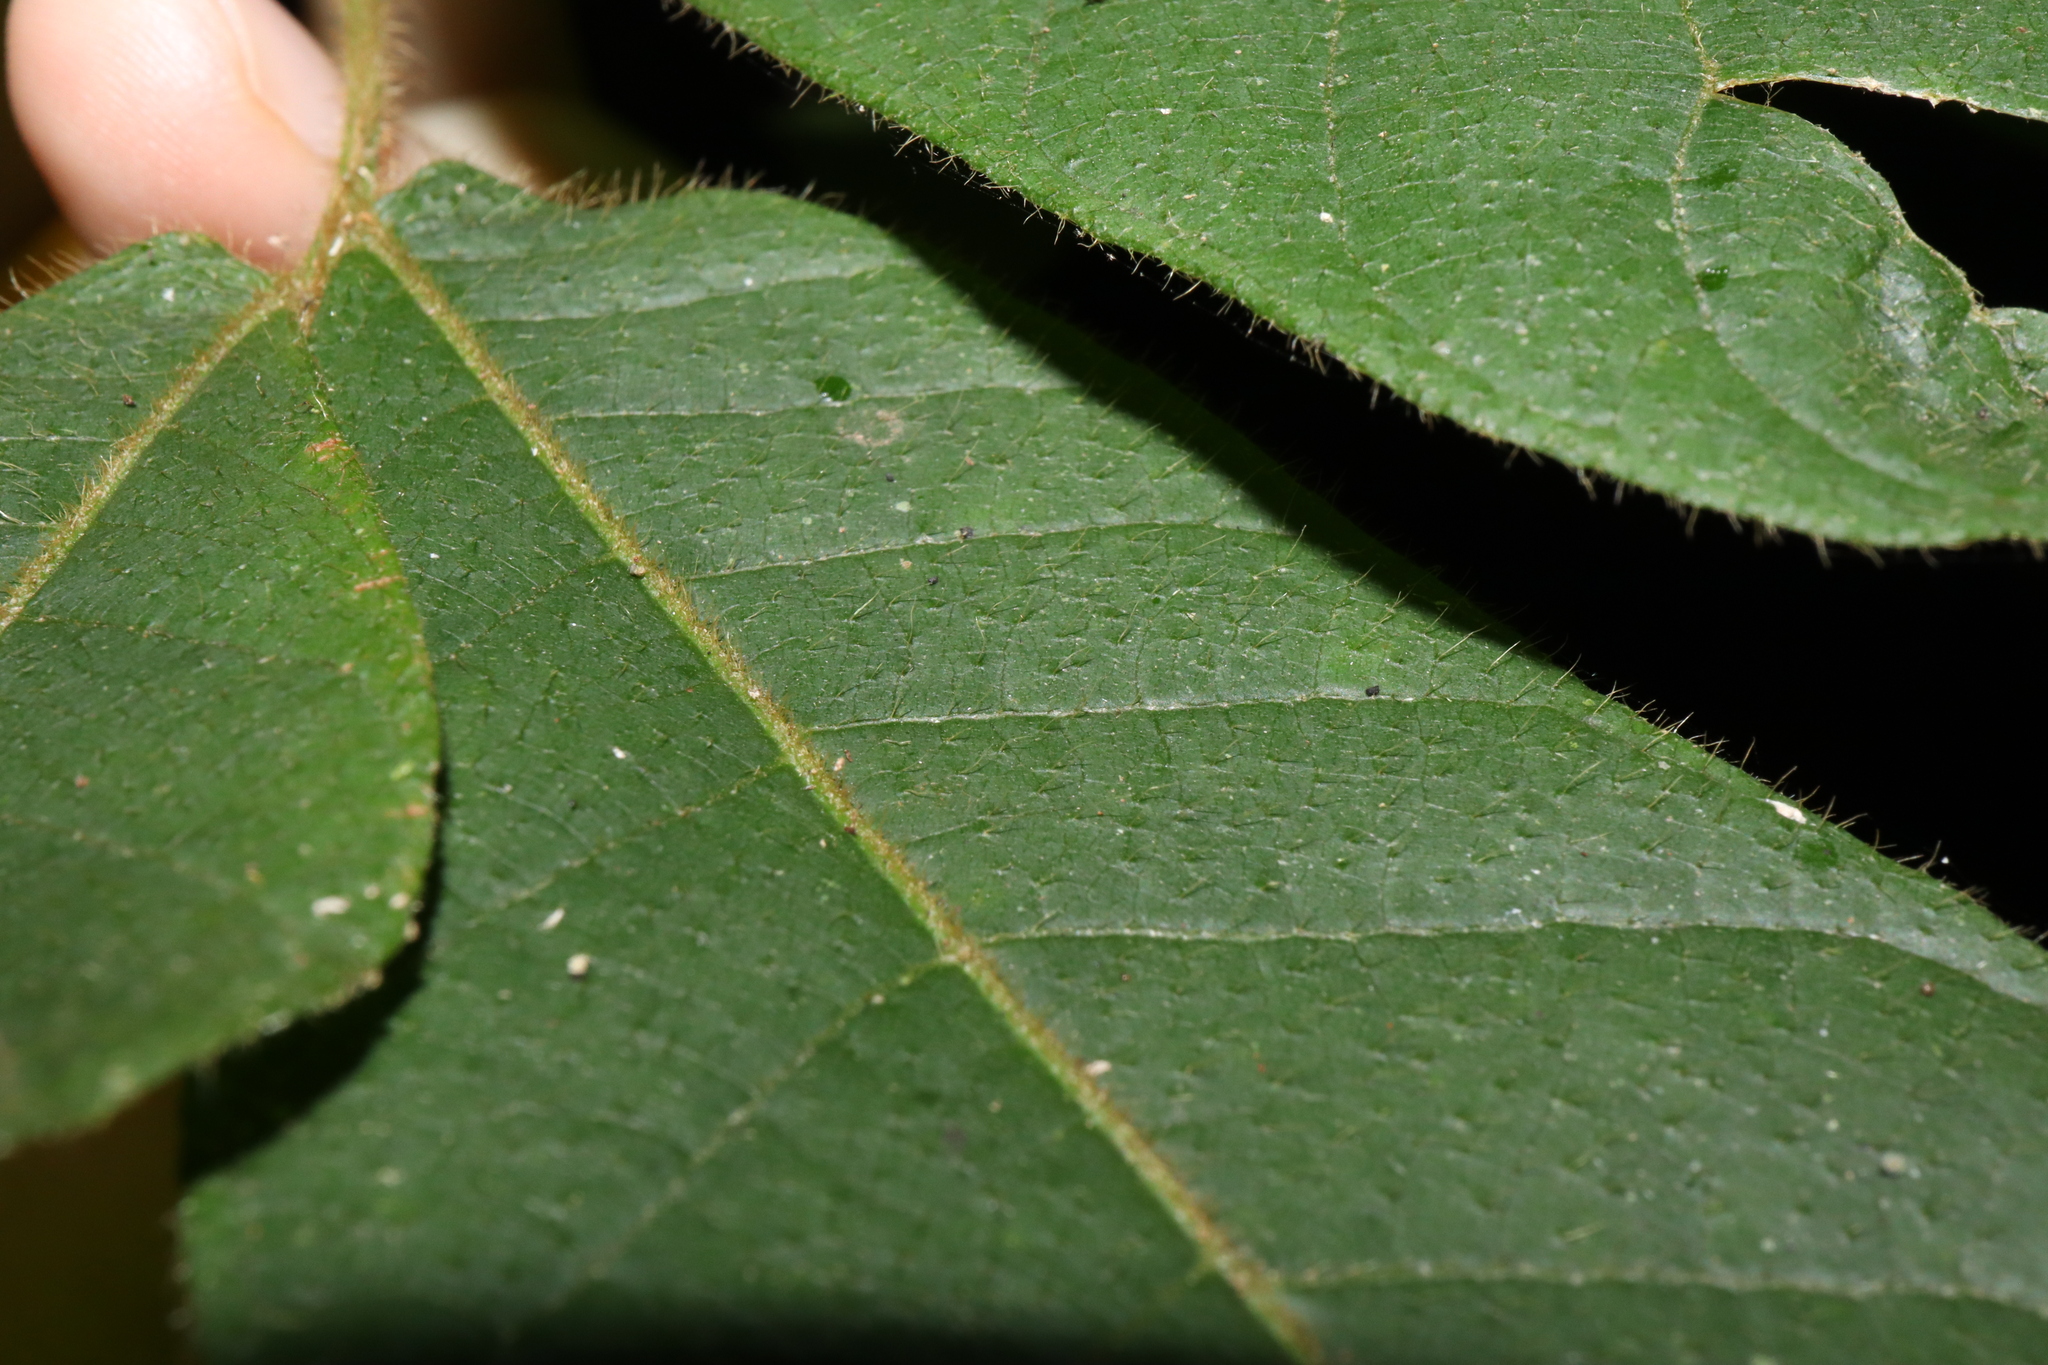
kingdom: Plantae
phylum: Tracheophyta
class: Magnoliopsida
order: Sapindales
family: Sapindaceae
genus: Diploglottis
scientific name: Diploglottis diphyllostegia
